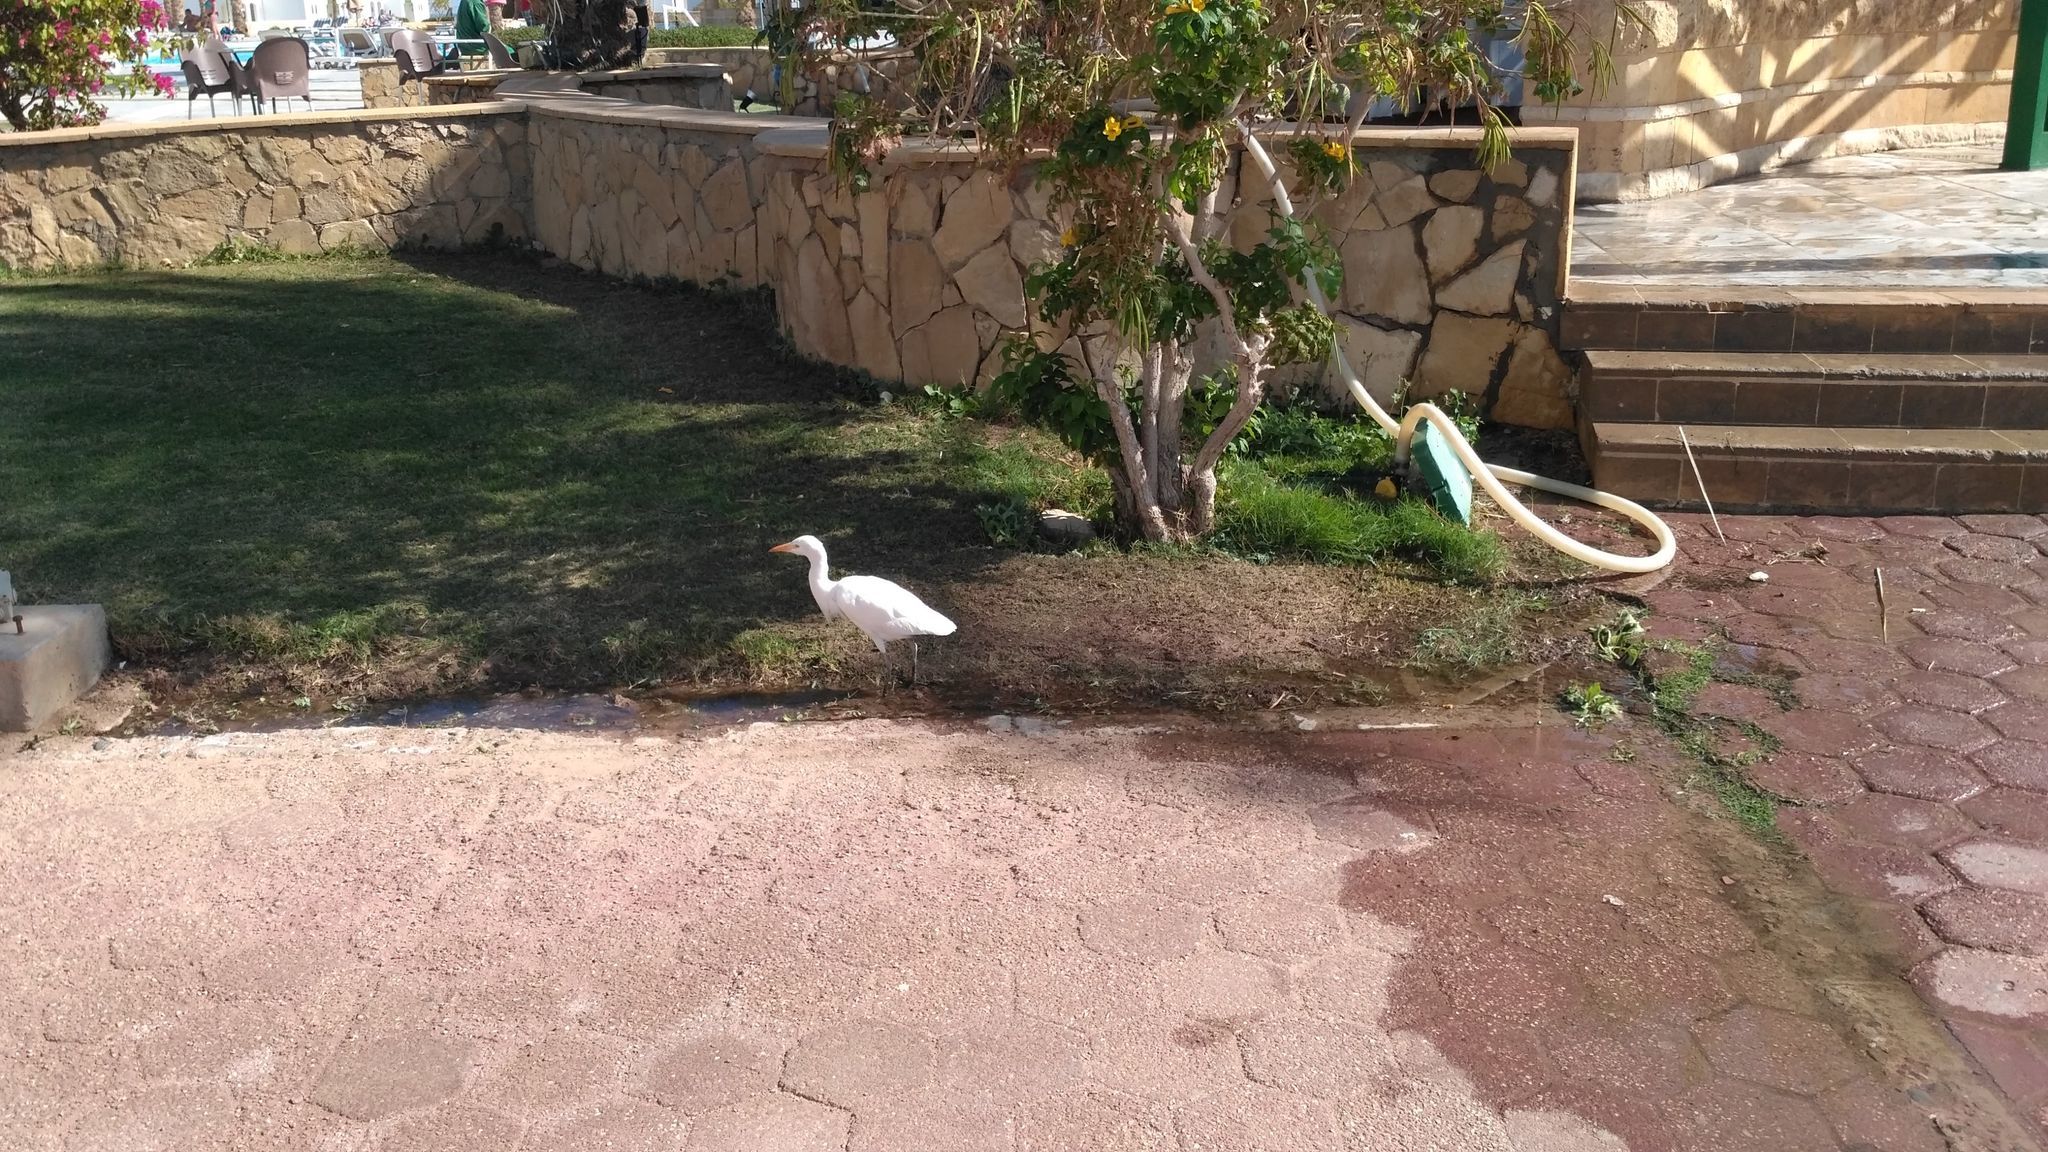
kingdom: Animalia
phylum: Chordata
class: Aves
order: Pelecaniformes
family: Ardeidae
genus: Bubulcus
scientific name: Bubulcus ibis
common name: Cattle egret
